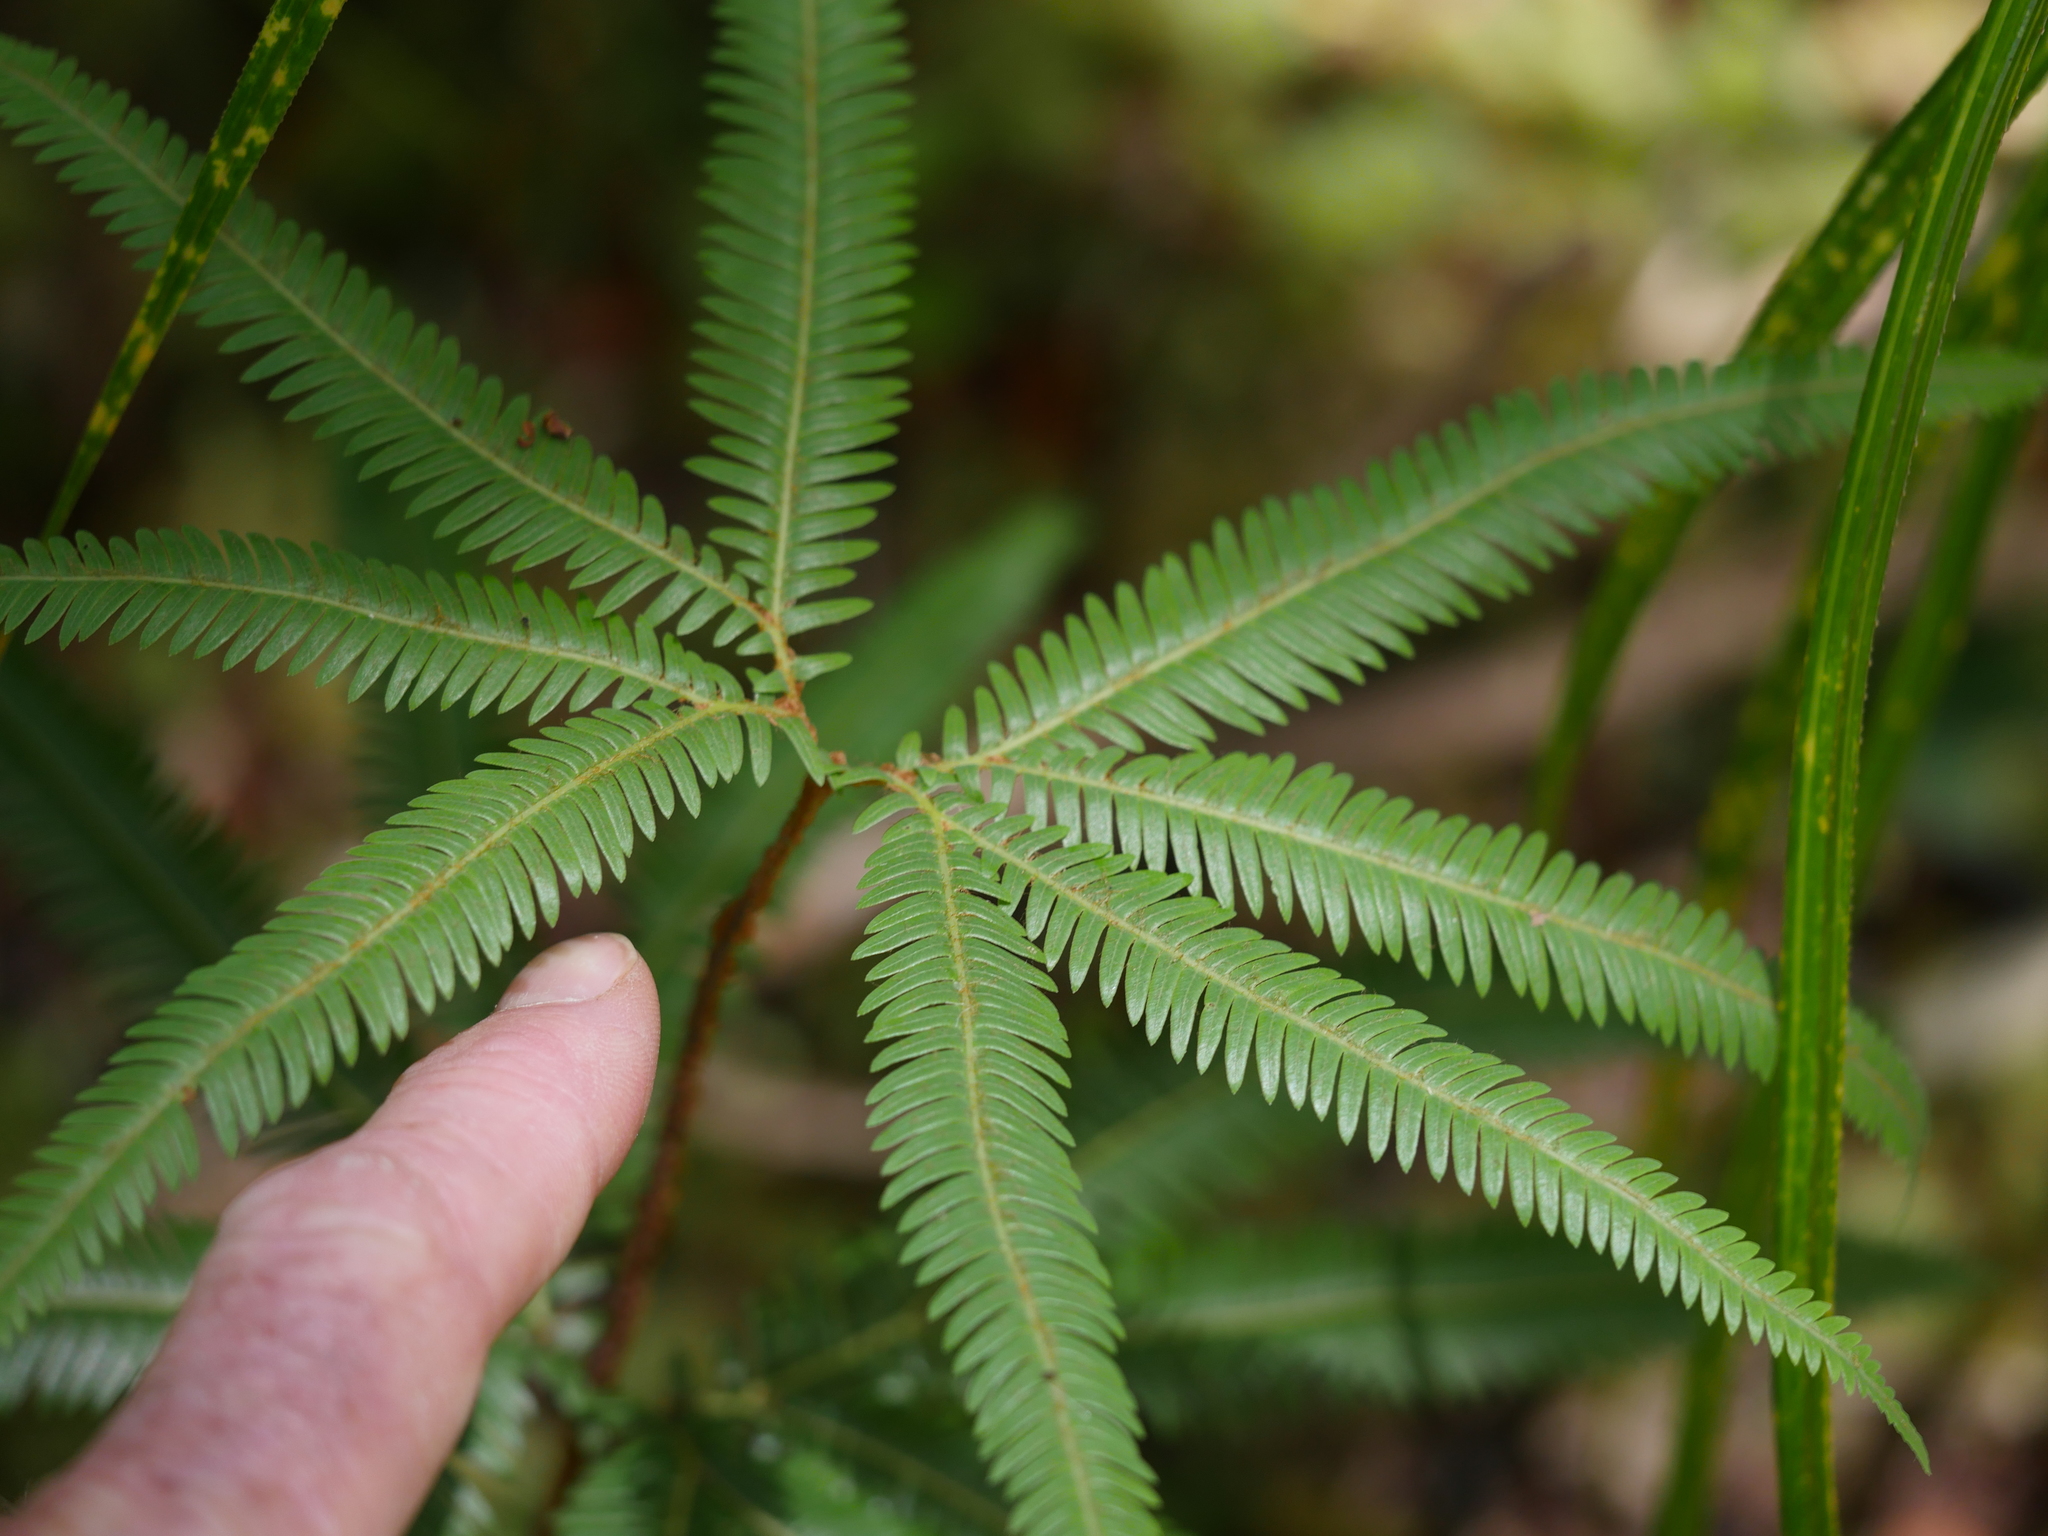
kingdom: Plantae
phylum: Tracheophyta
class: Polypodiopsida
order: Gleicheniales
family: Gleicheniaceae
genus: Sticherus
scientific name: Sticherus cunninghamii
